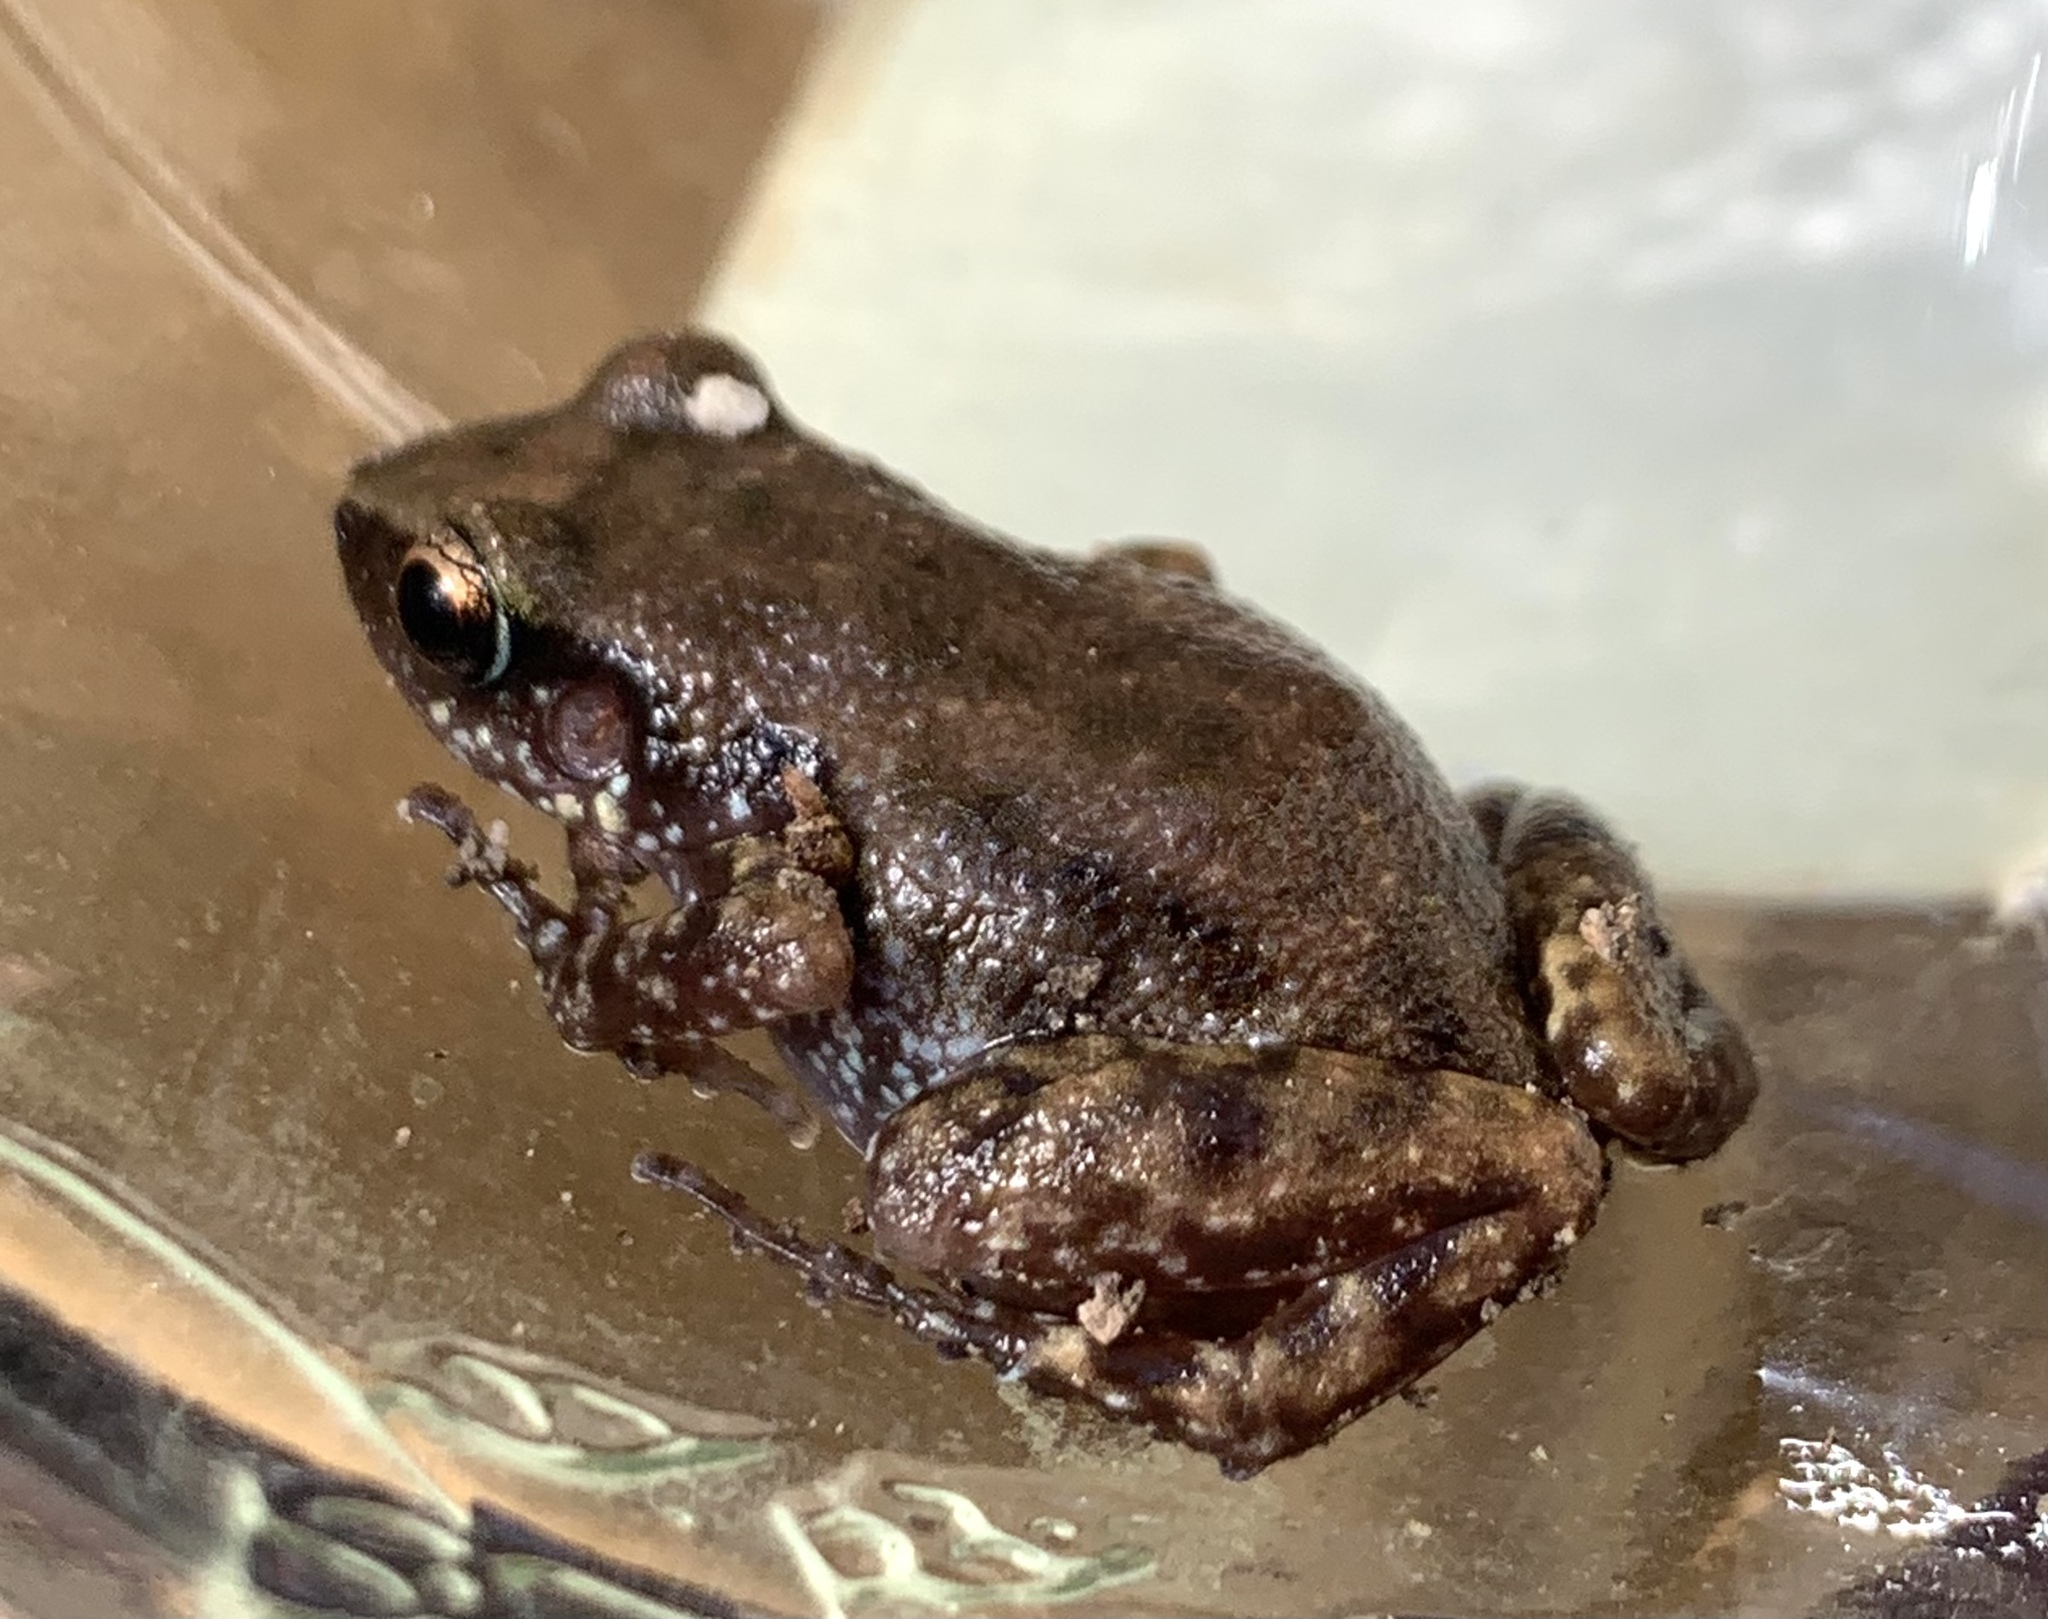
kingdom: Animalia
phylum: Chordata
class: Amphibia
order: Anura
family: Eleutherodactylidae
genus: Eleutherodactylus
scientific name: Eleutherodactylus campi
